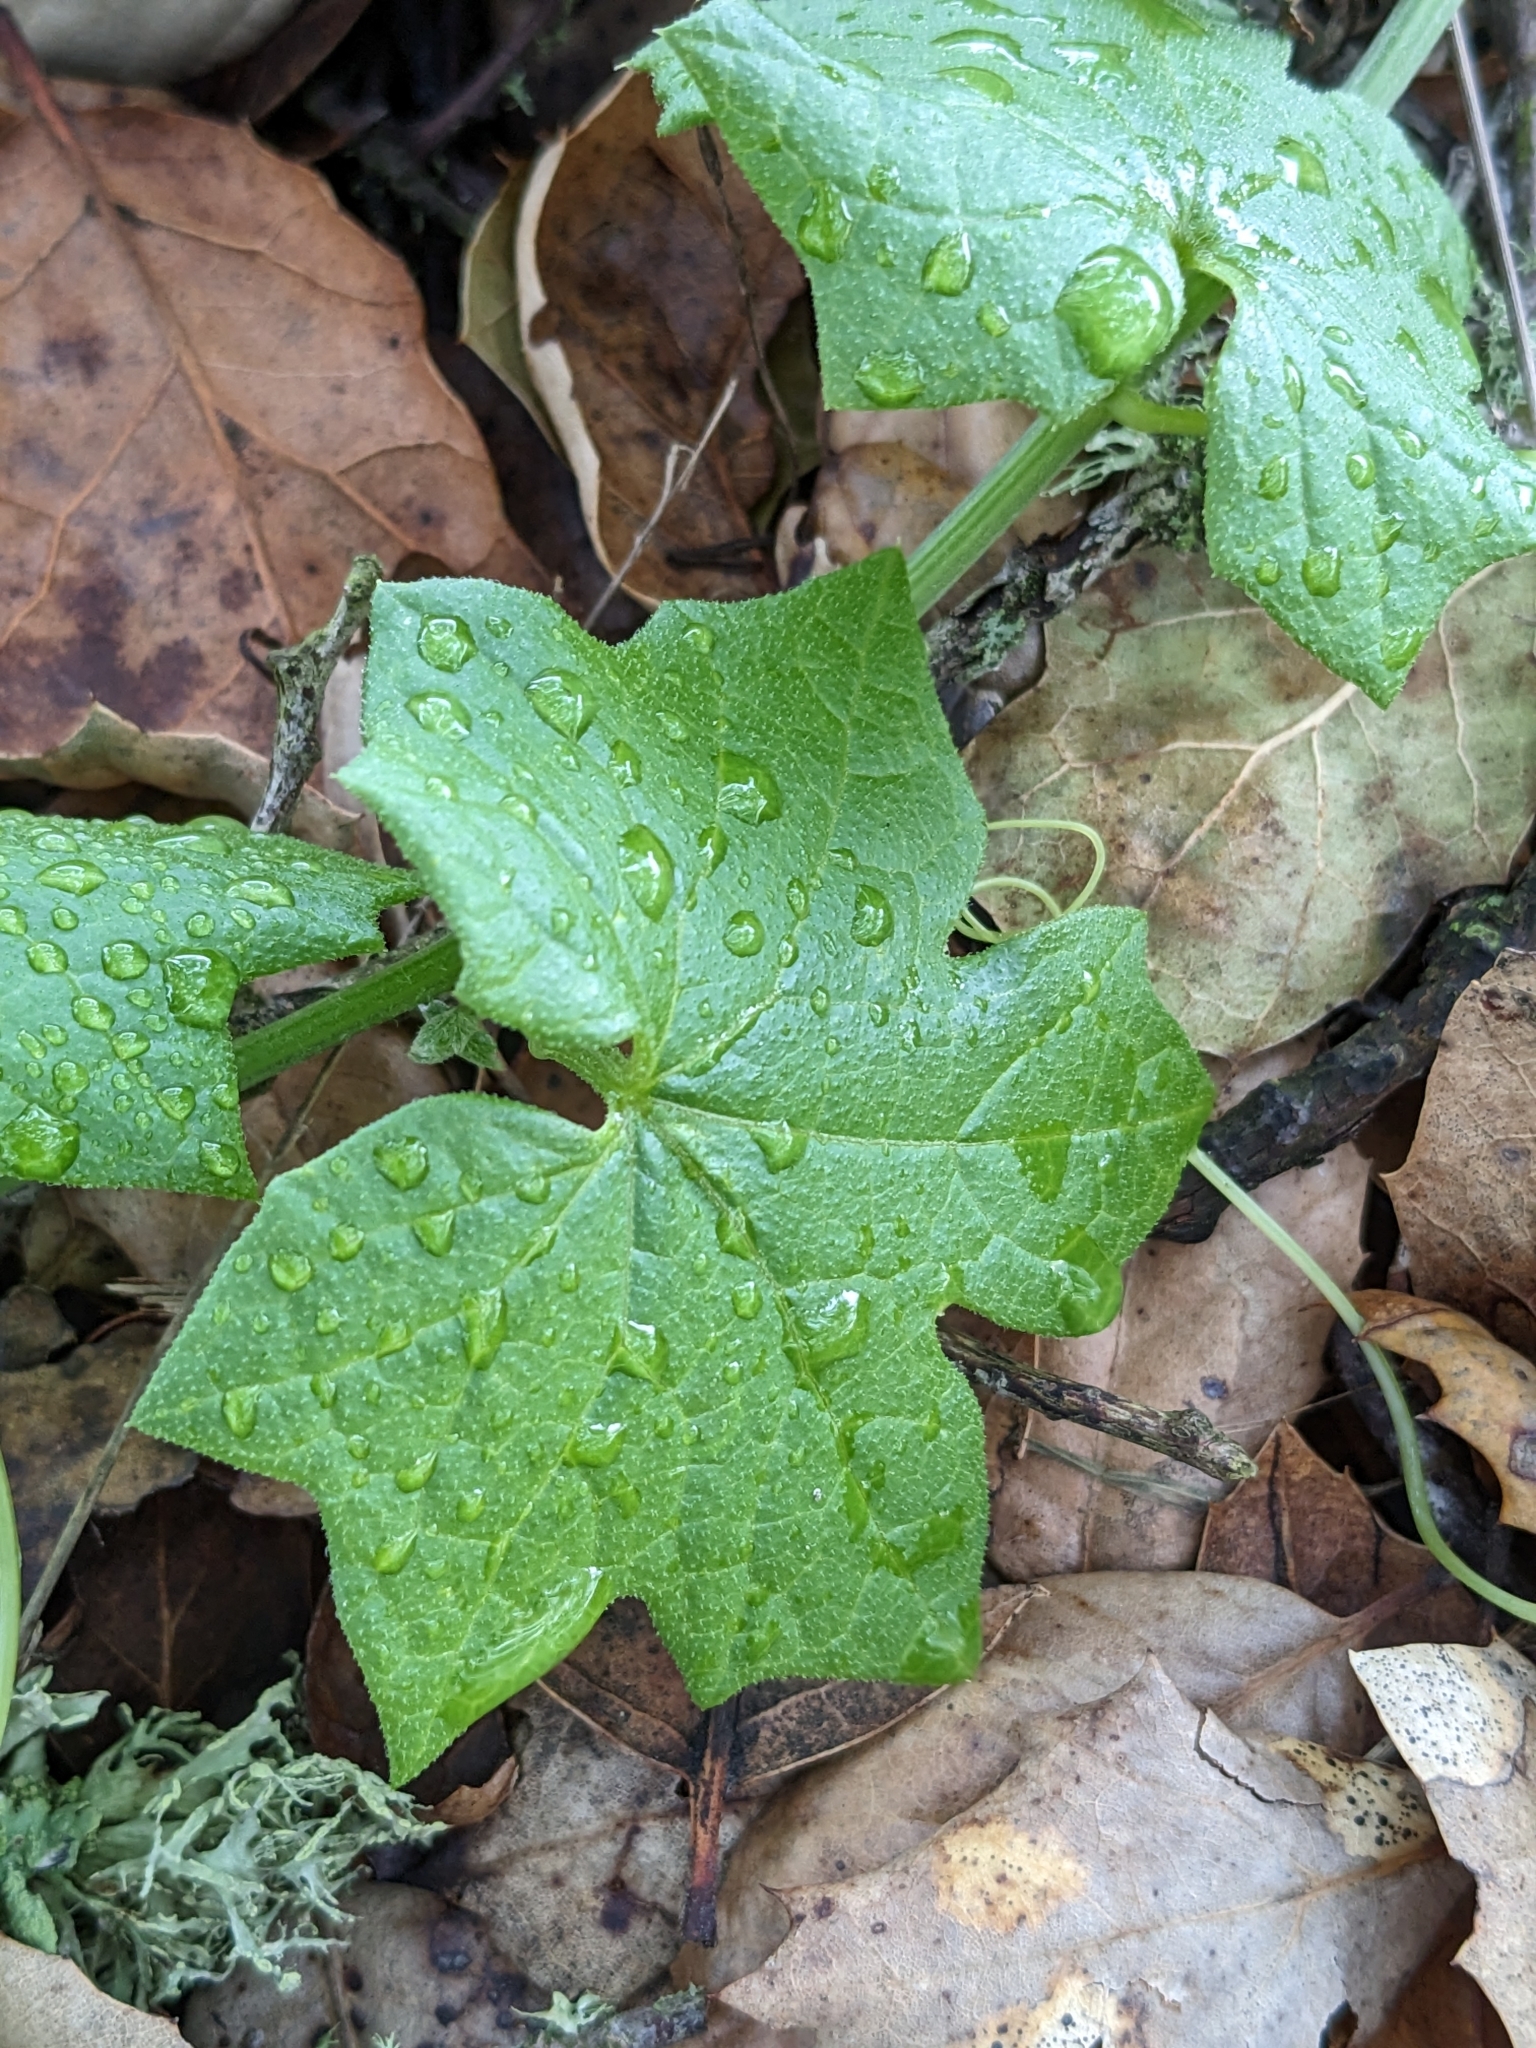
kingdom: Plantae
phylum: Tracheophyta
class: Magnoliopsida
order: Cucurbitales
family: Cucurbitaceae
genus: Marah
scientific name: Marah fabacea
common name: California manroot
